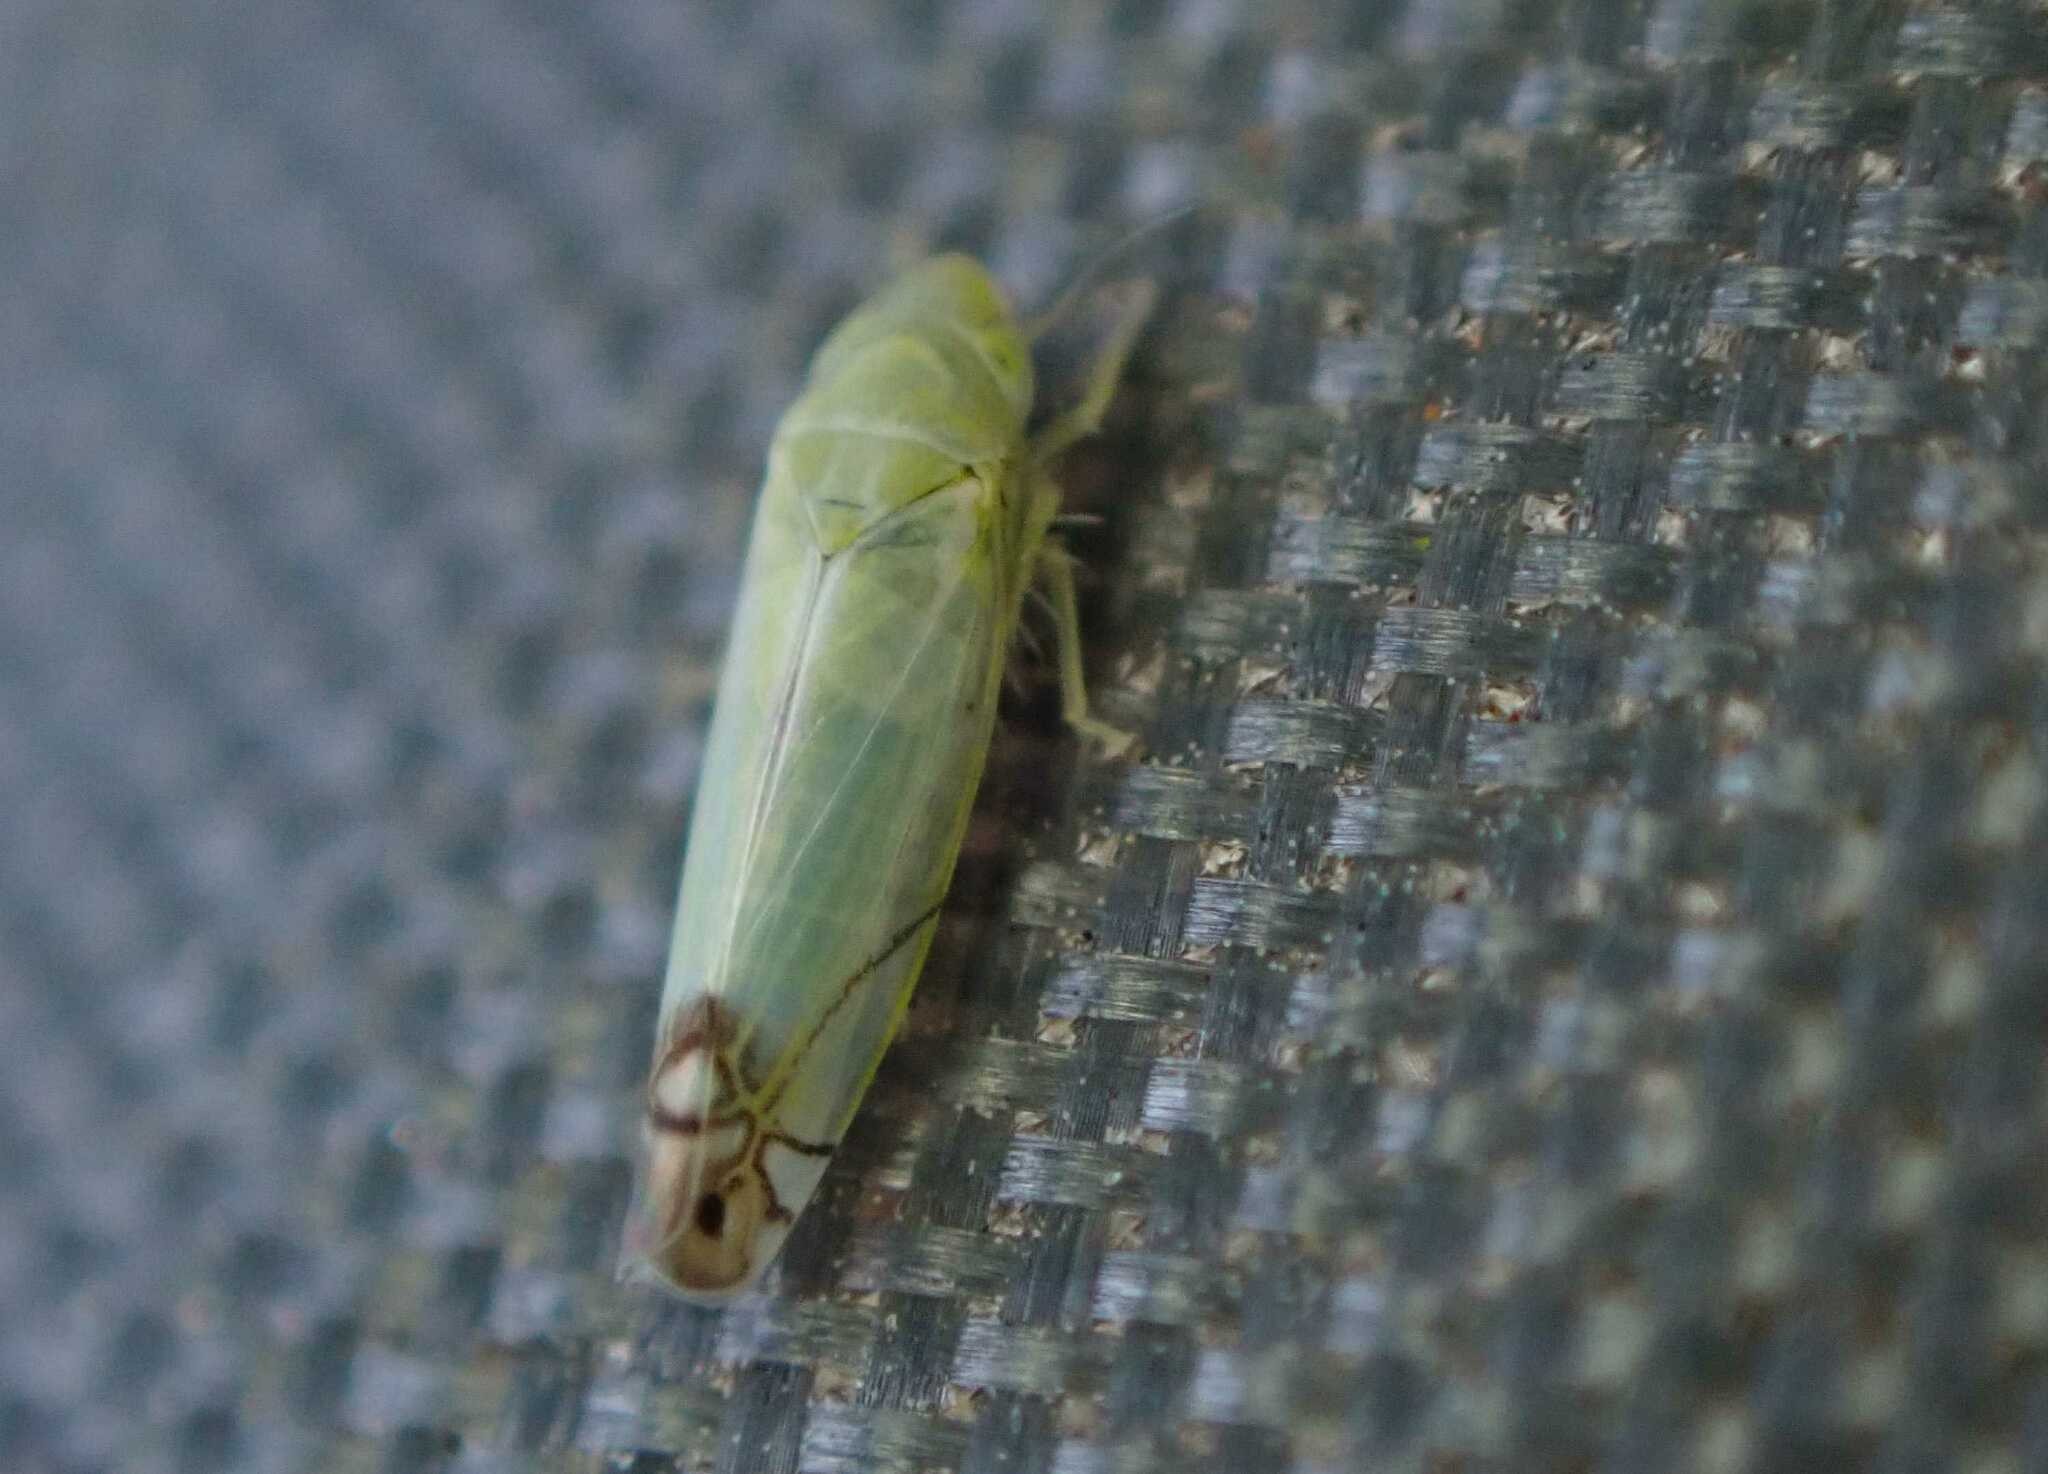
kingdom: Animalia
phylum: Arthropoda
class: Insecta
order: Hemiptera
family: Cicadellidae
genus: Zyginella
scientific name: Zyginella pulchra
